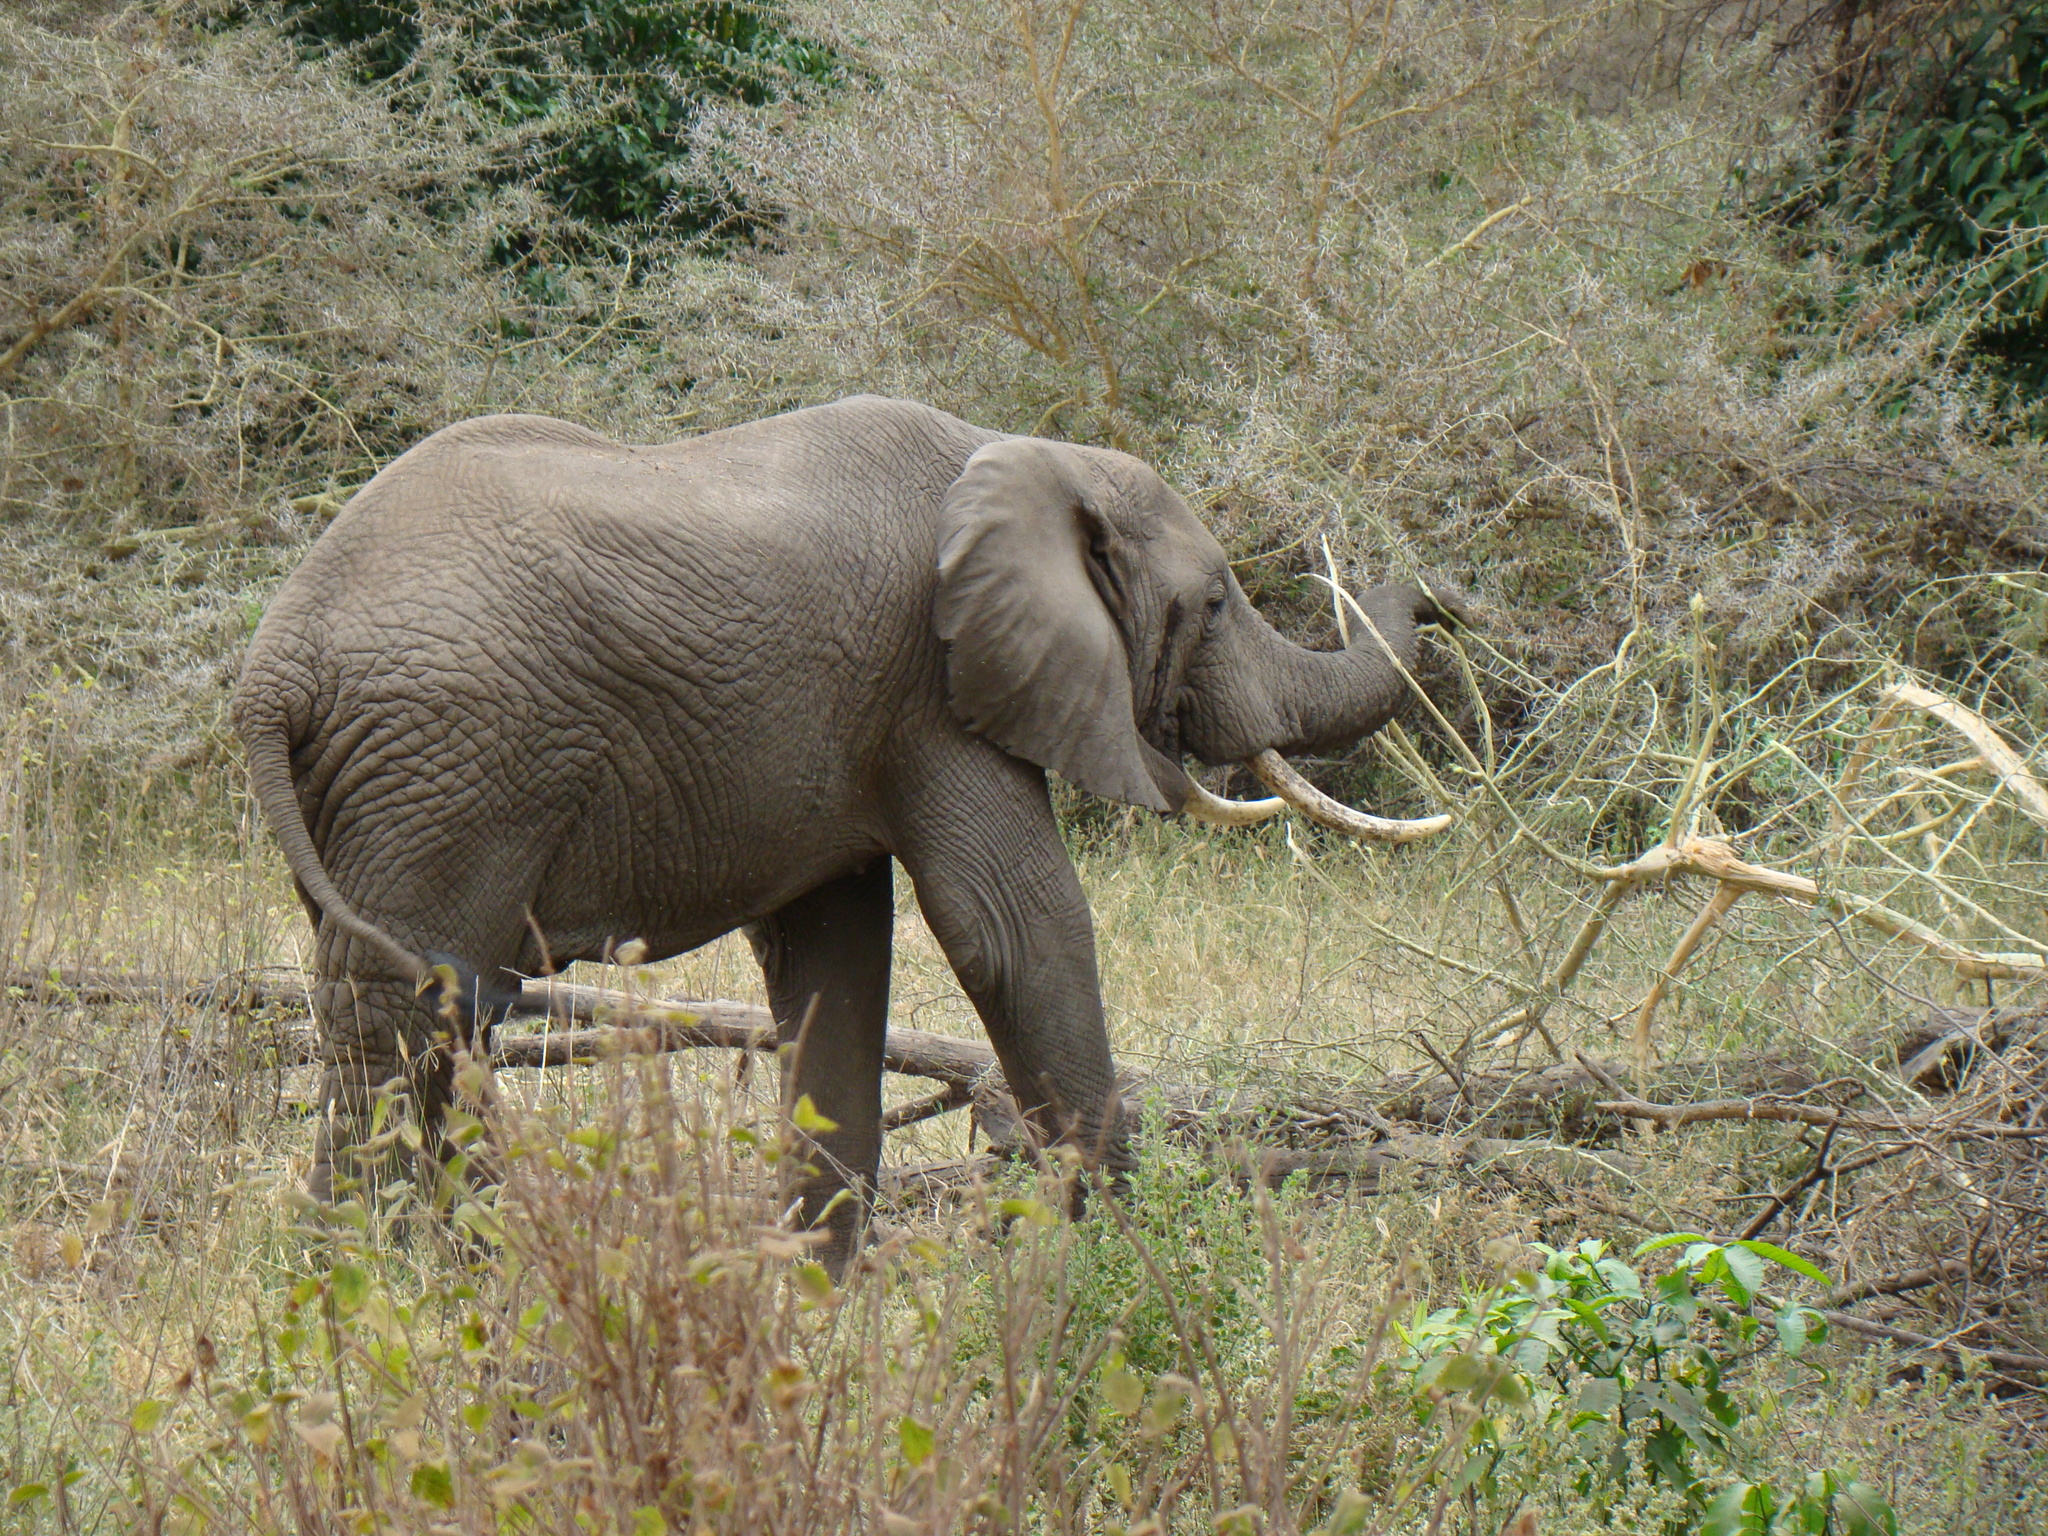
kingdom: Animalia
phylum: Chordata
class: Mammalia
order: Proboscidea
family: Elephantidae
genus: Loxodonta
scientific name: Loxodonta africana
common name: African elephant
